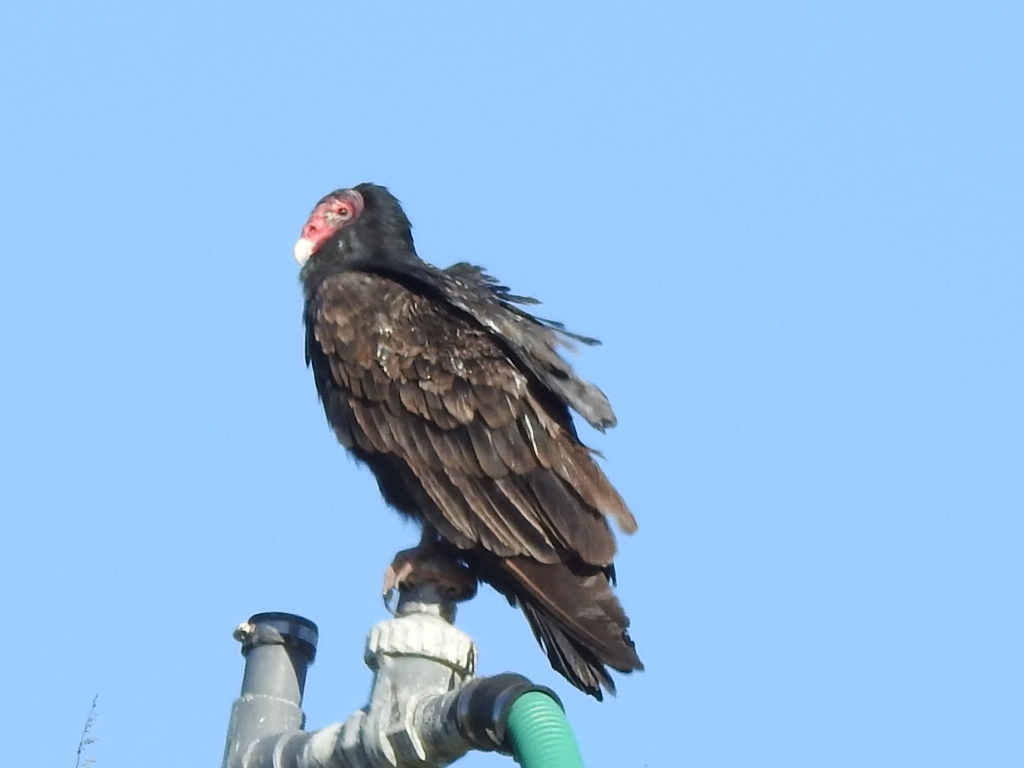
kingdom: Animalia
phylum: Chordata
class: Aves
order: Accipitriformes
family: Cathartidae
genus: Cathartes
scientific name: Cathartes aura
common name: Turkey vulture
